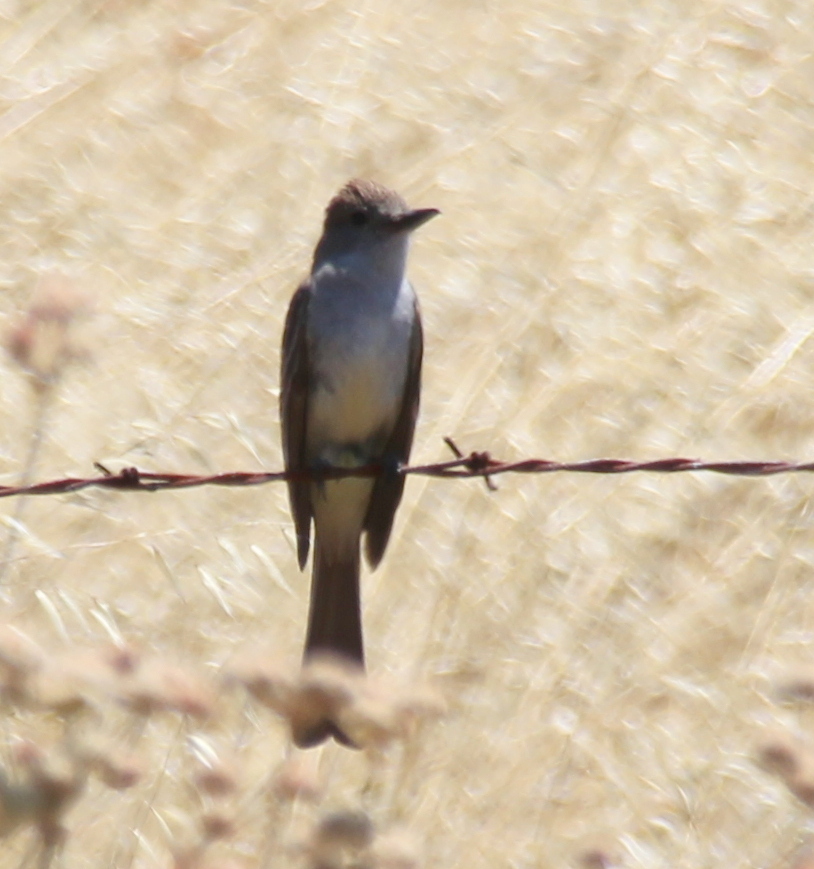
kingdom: Animalia
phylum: Chordata
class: Aves
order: Passeriformes
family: Tyrannidae
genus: Myiarchus
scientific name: Myiarchus cinerascens
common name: Ash-throated flycatcher
